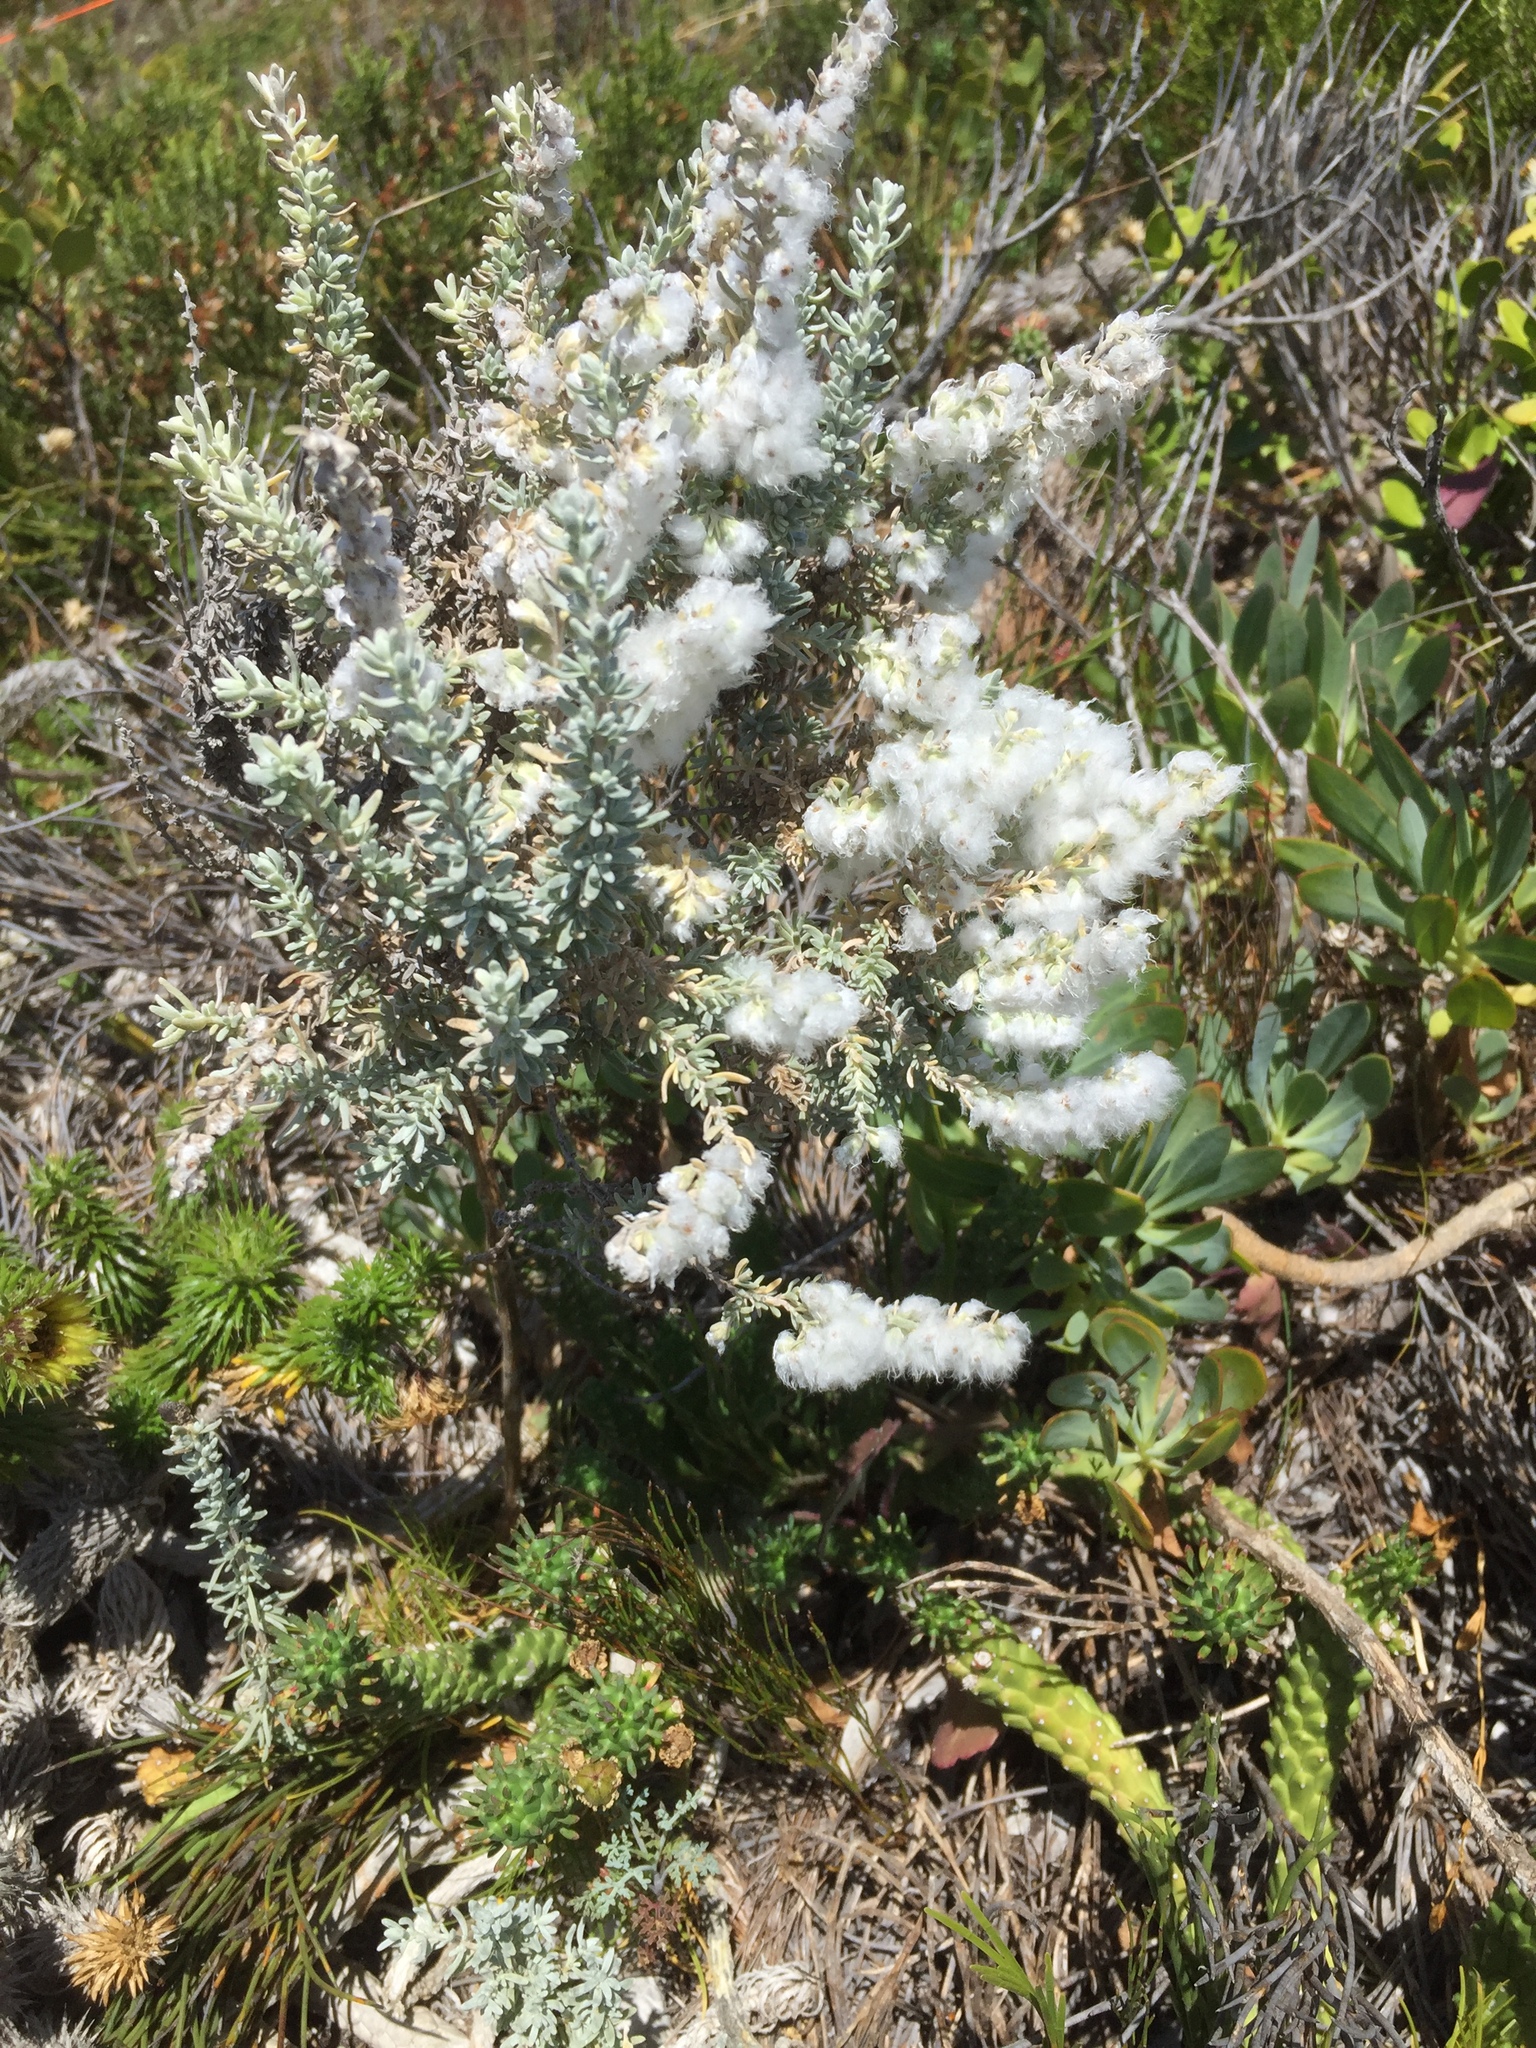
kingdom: Plantae
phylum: Tracheophyta
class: Magnoliopsida
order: Asterales
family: Asteraceae
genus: Eriocephalus
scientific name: Eriocephalus racemosus
